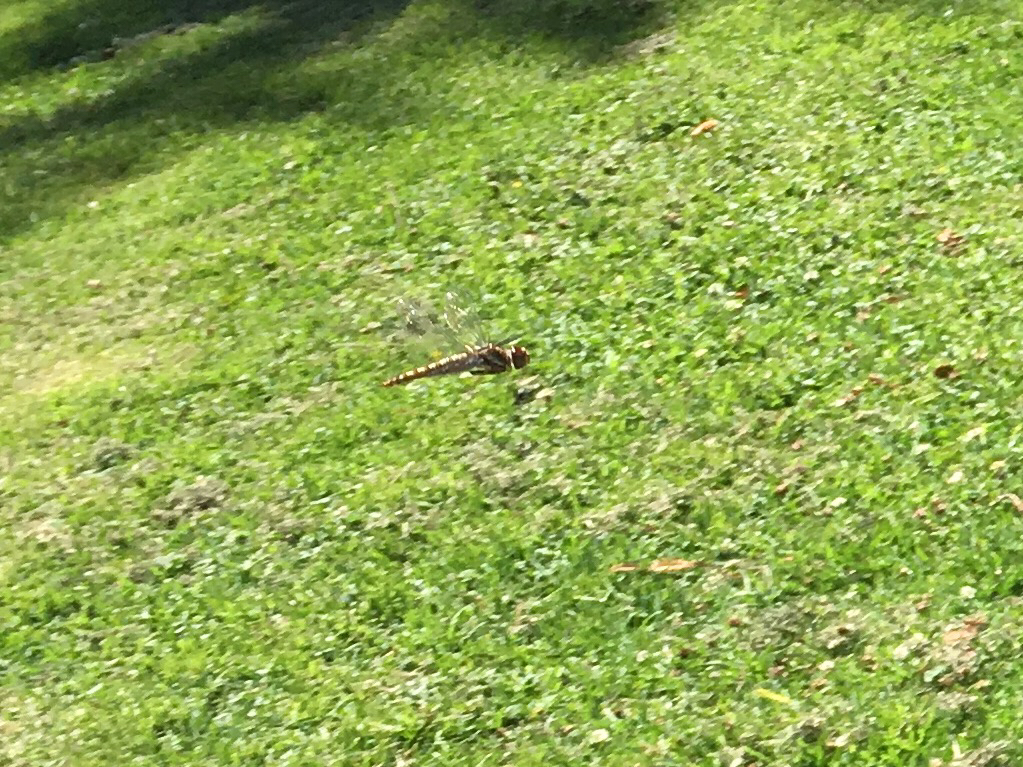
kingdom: Animalia
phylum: Arthropoda
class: Insecta
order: Odonata
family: Libellulidae
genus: Sympetrum
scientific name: Sympetrum corruptum
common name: Variegated meadowhawk
